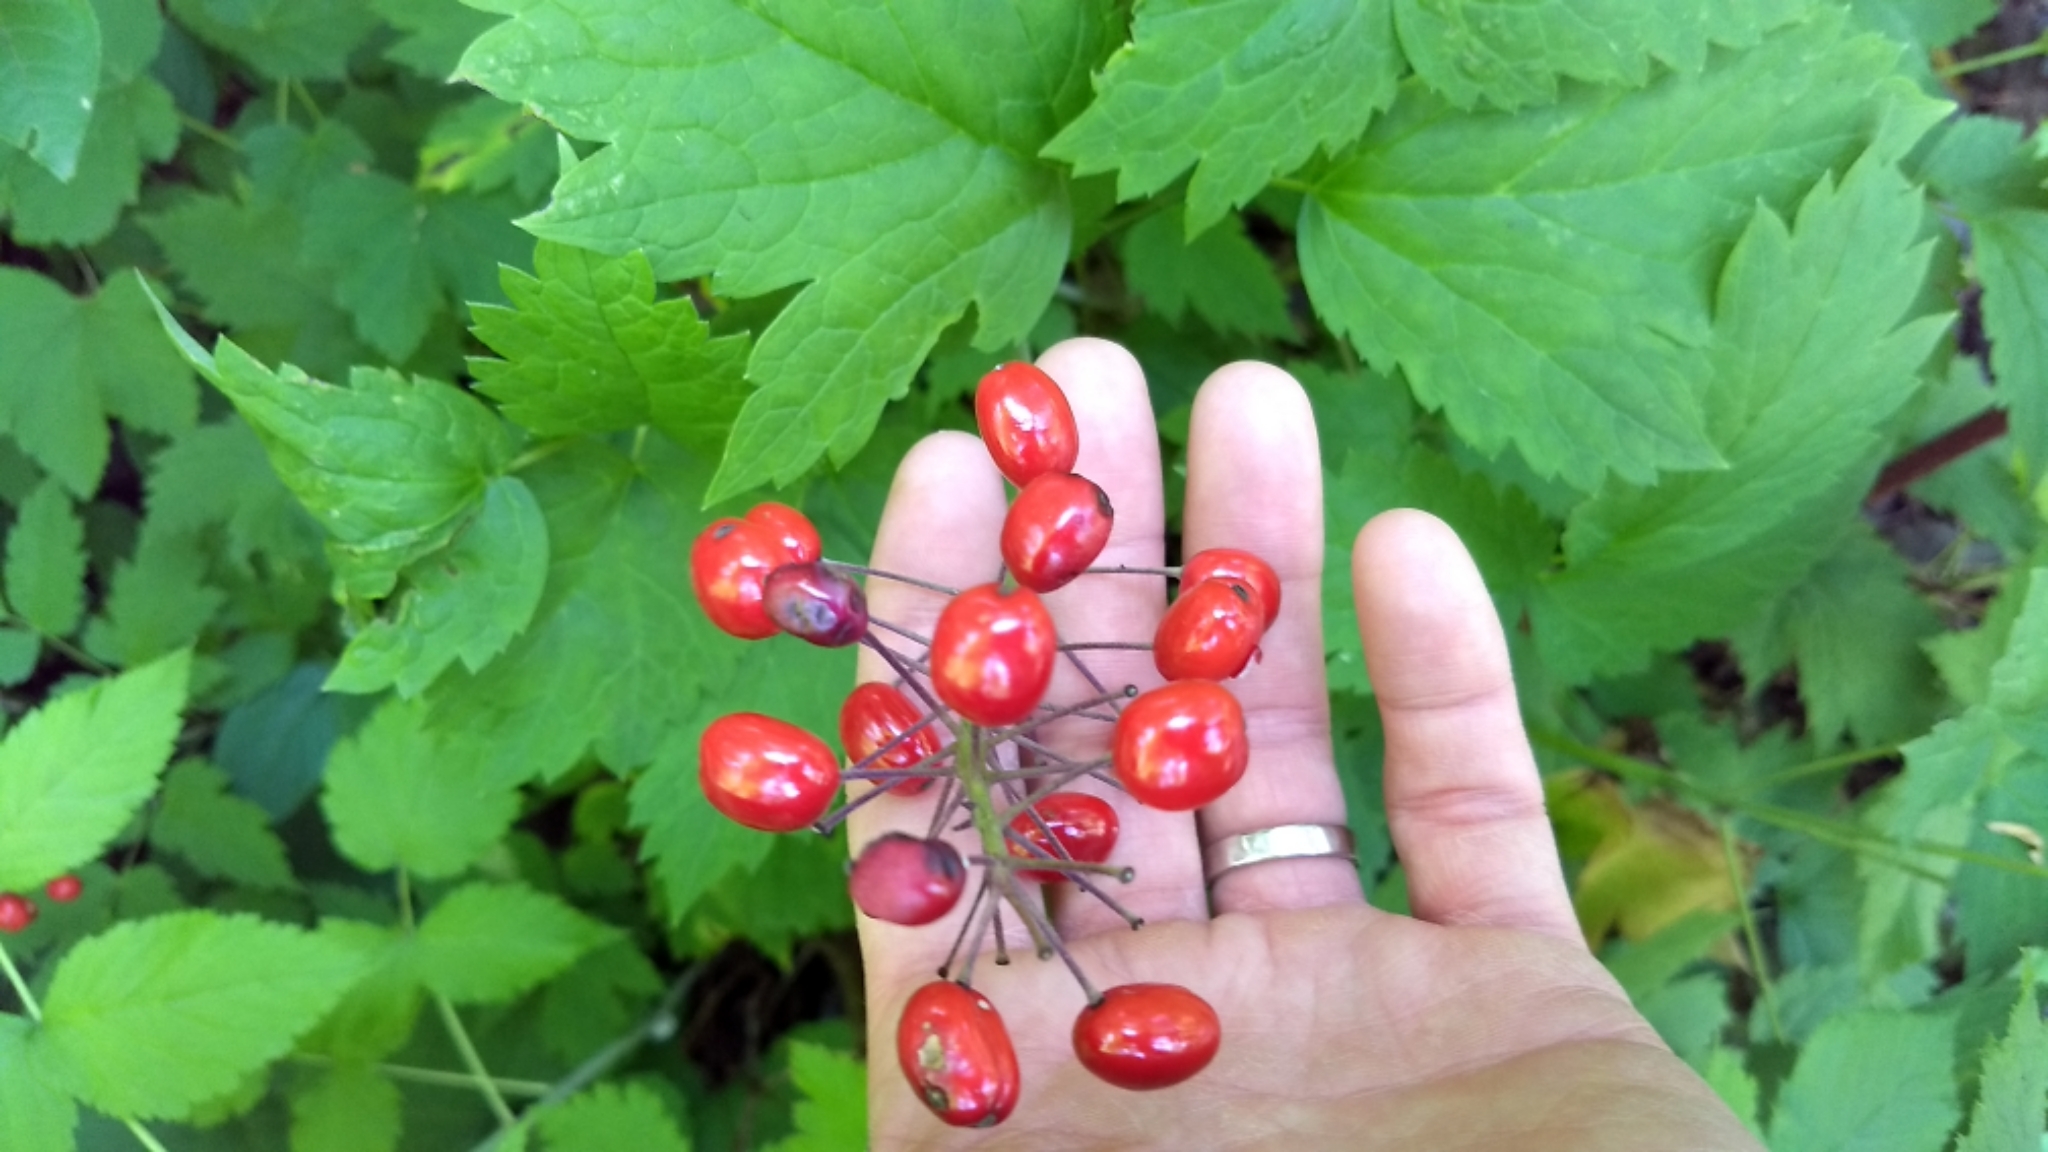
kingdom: Plantae
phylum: Tracheophyta
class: Magnoliopsida
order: Ranunculales
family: Ranunculaceae
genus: Actaea
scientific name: Actaea rubra
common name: Red baneberry
